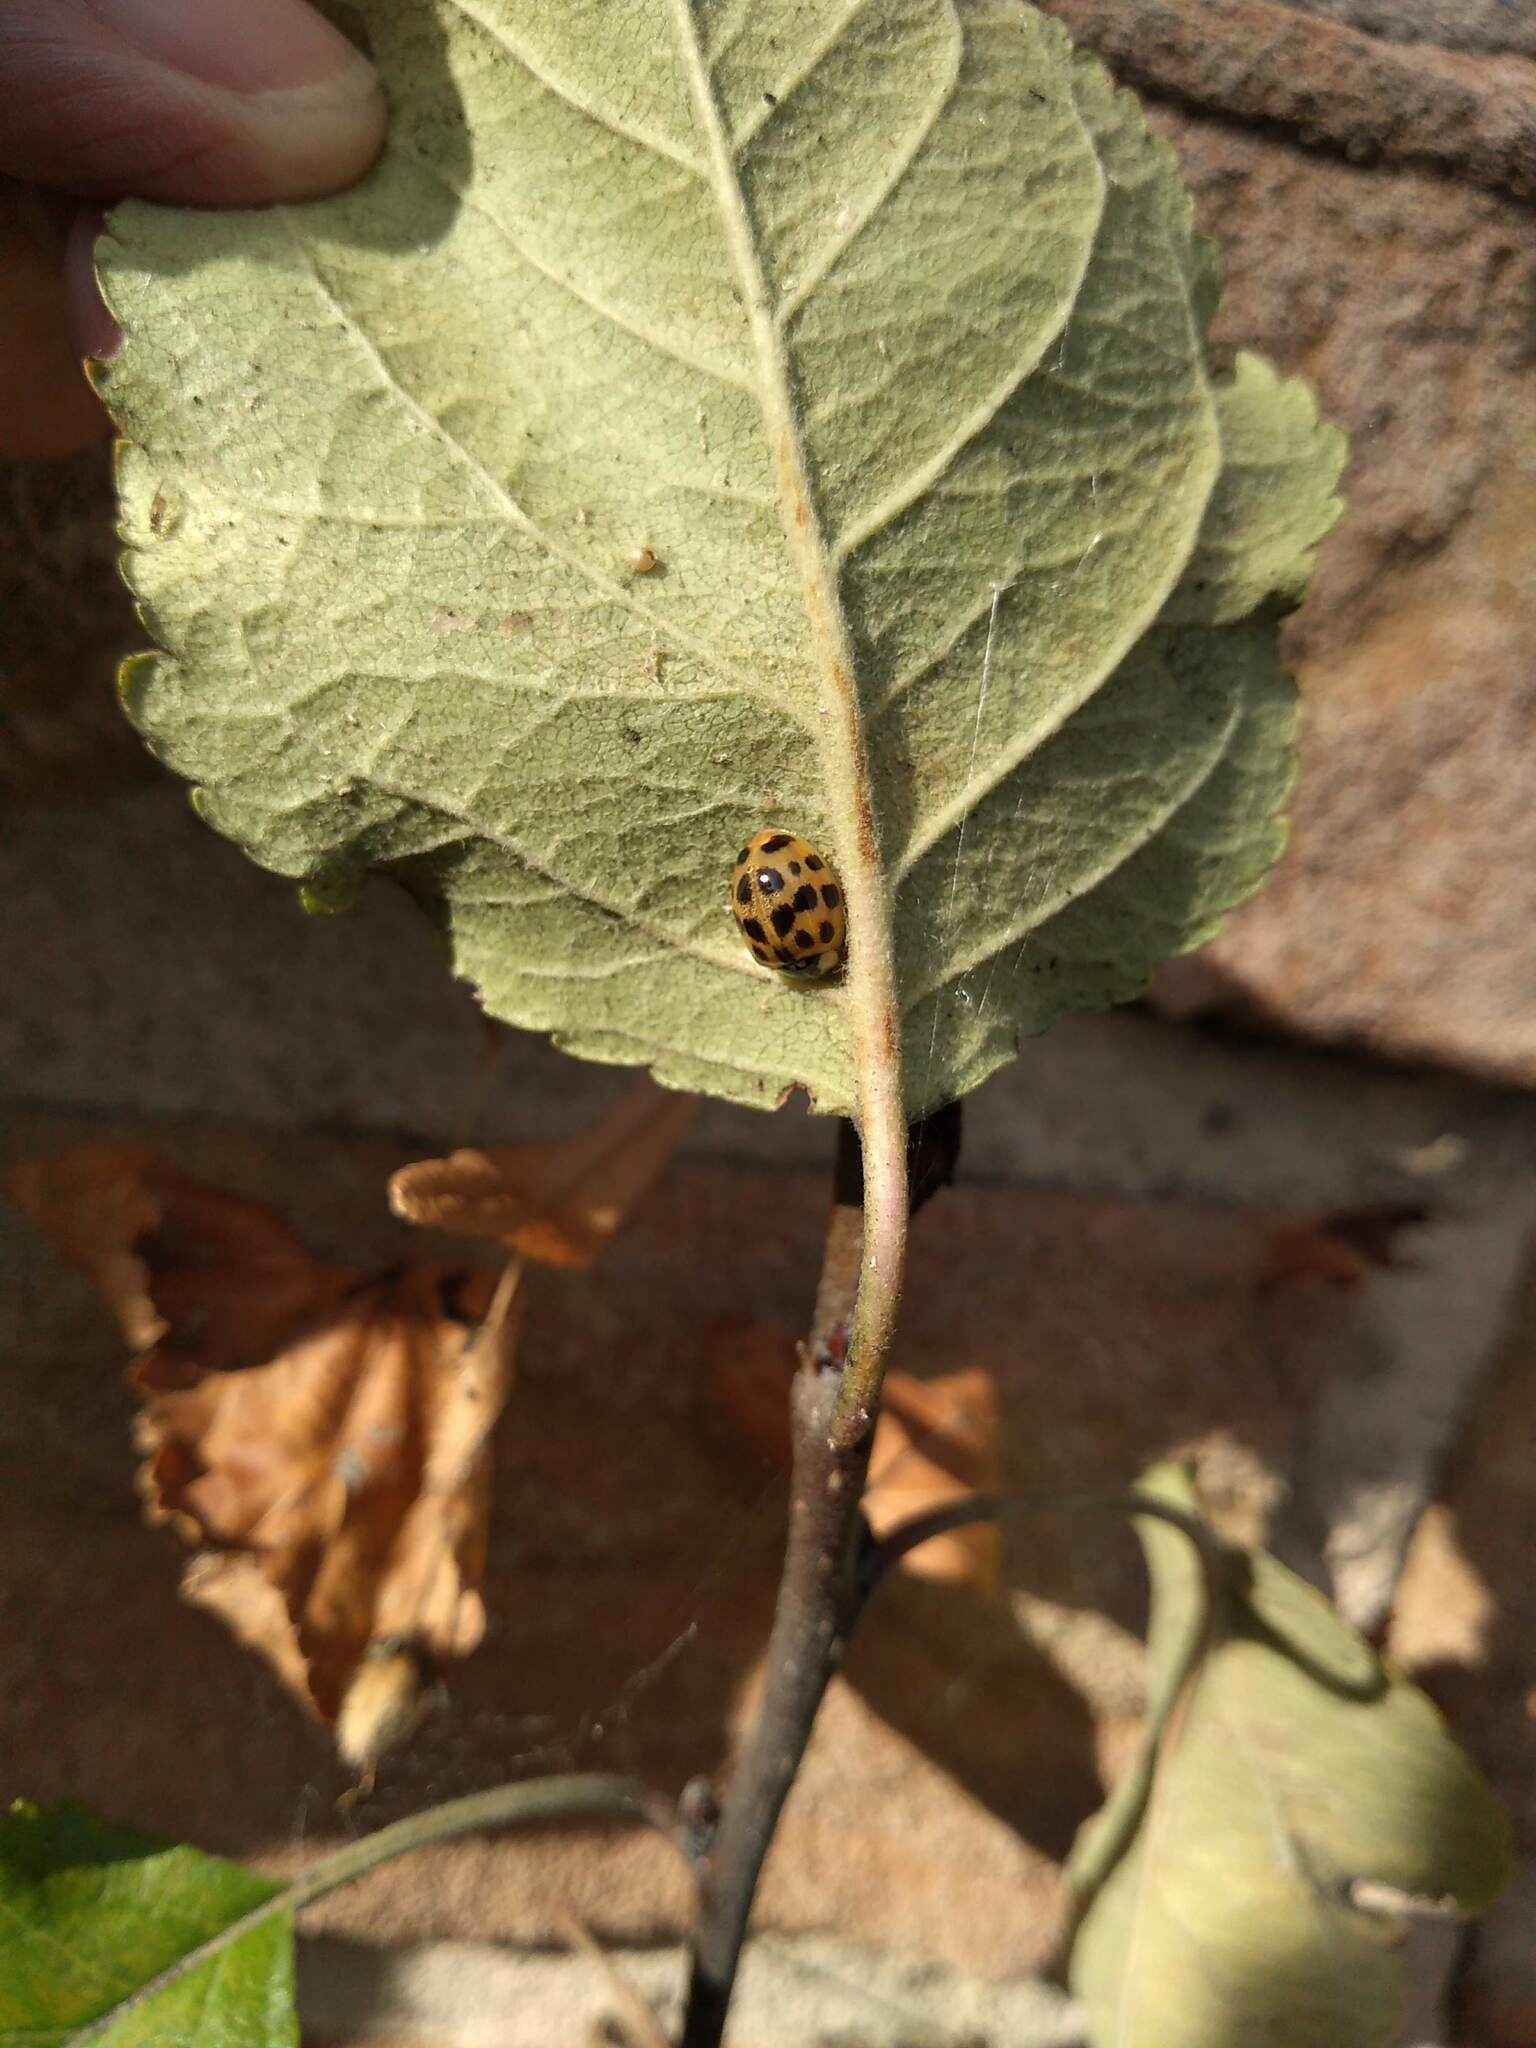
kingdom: Animalia
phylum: Arthropoda
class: Insecta
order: Coleoptera
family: Coccinellidae
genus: Harmonia
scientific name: Harmonia axyridis
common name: Harlequin ladybird
